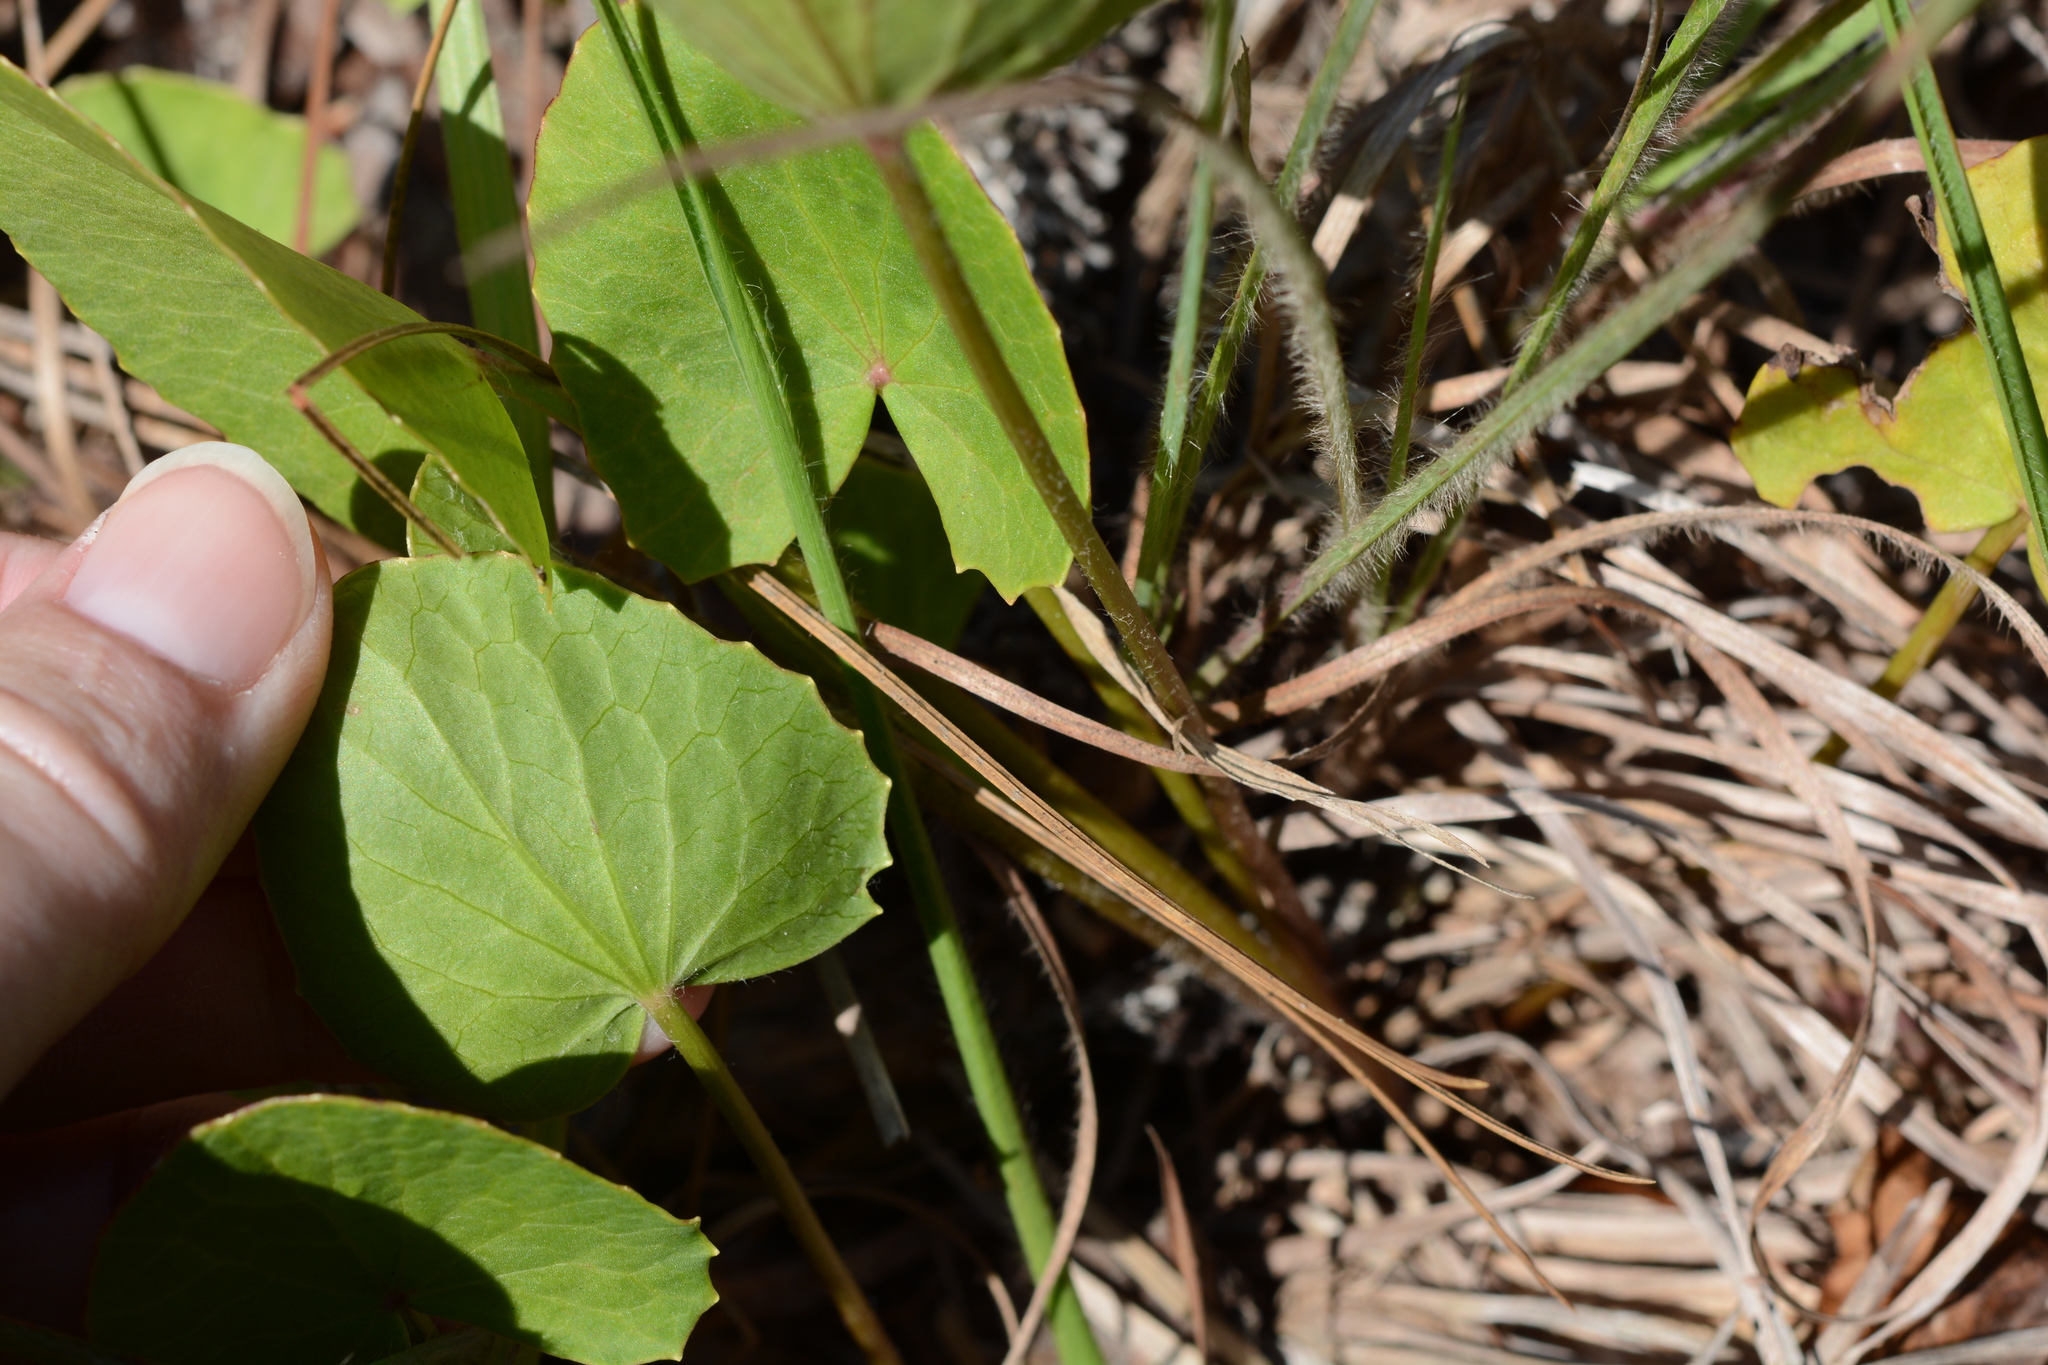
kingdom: Plantae
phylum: Tracheophyta
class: Magnoliopsida
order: Apiales
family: Apiaceae
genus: Centella
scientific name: Centella erecta
